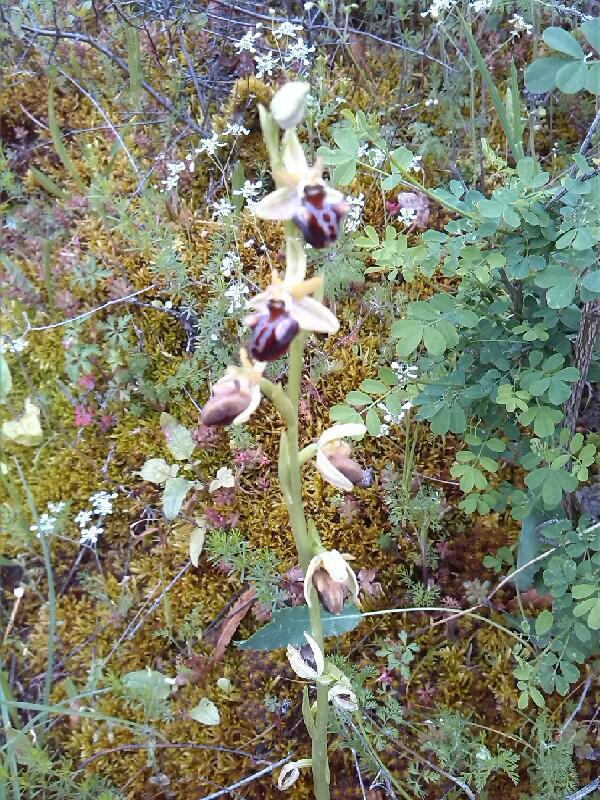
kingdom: Plantae
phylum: Tracheophyta
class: Liliopsida
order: Asparagales
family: Orchidaceae
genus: Ophrys
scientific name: Ophrys sphegodes
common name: Early spider-orchid
